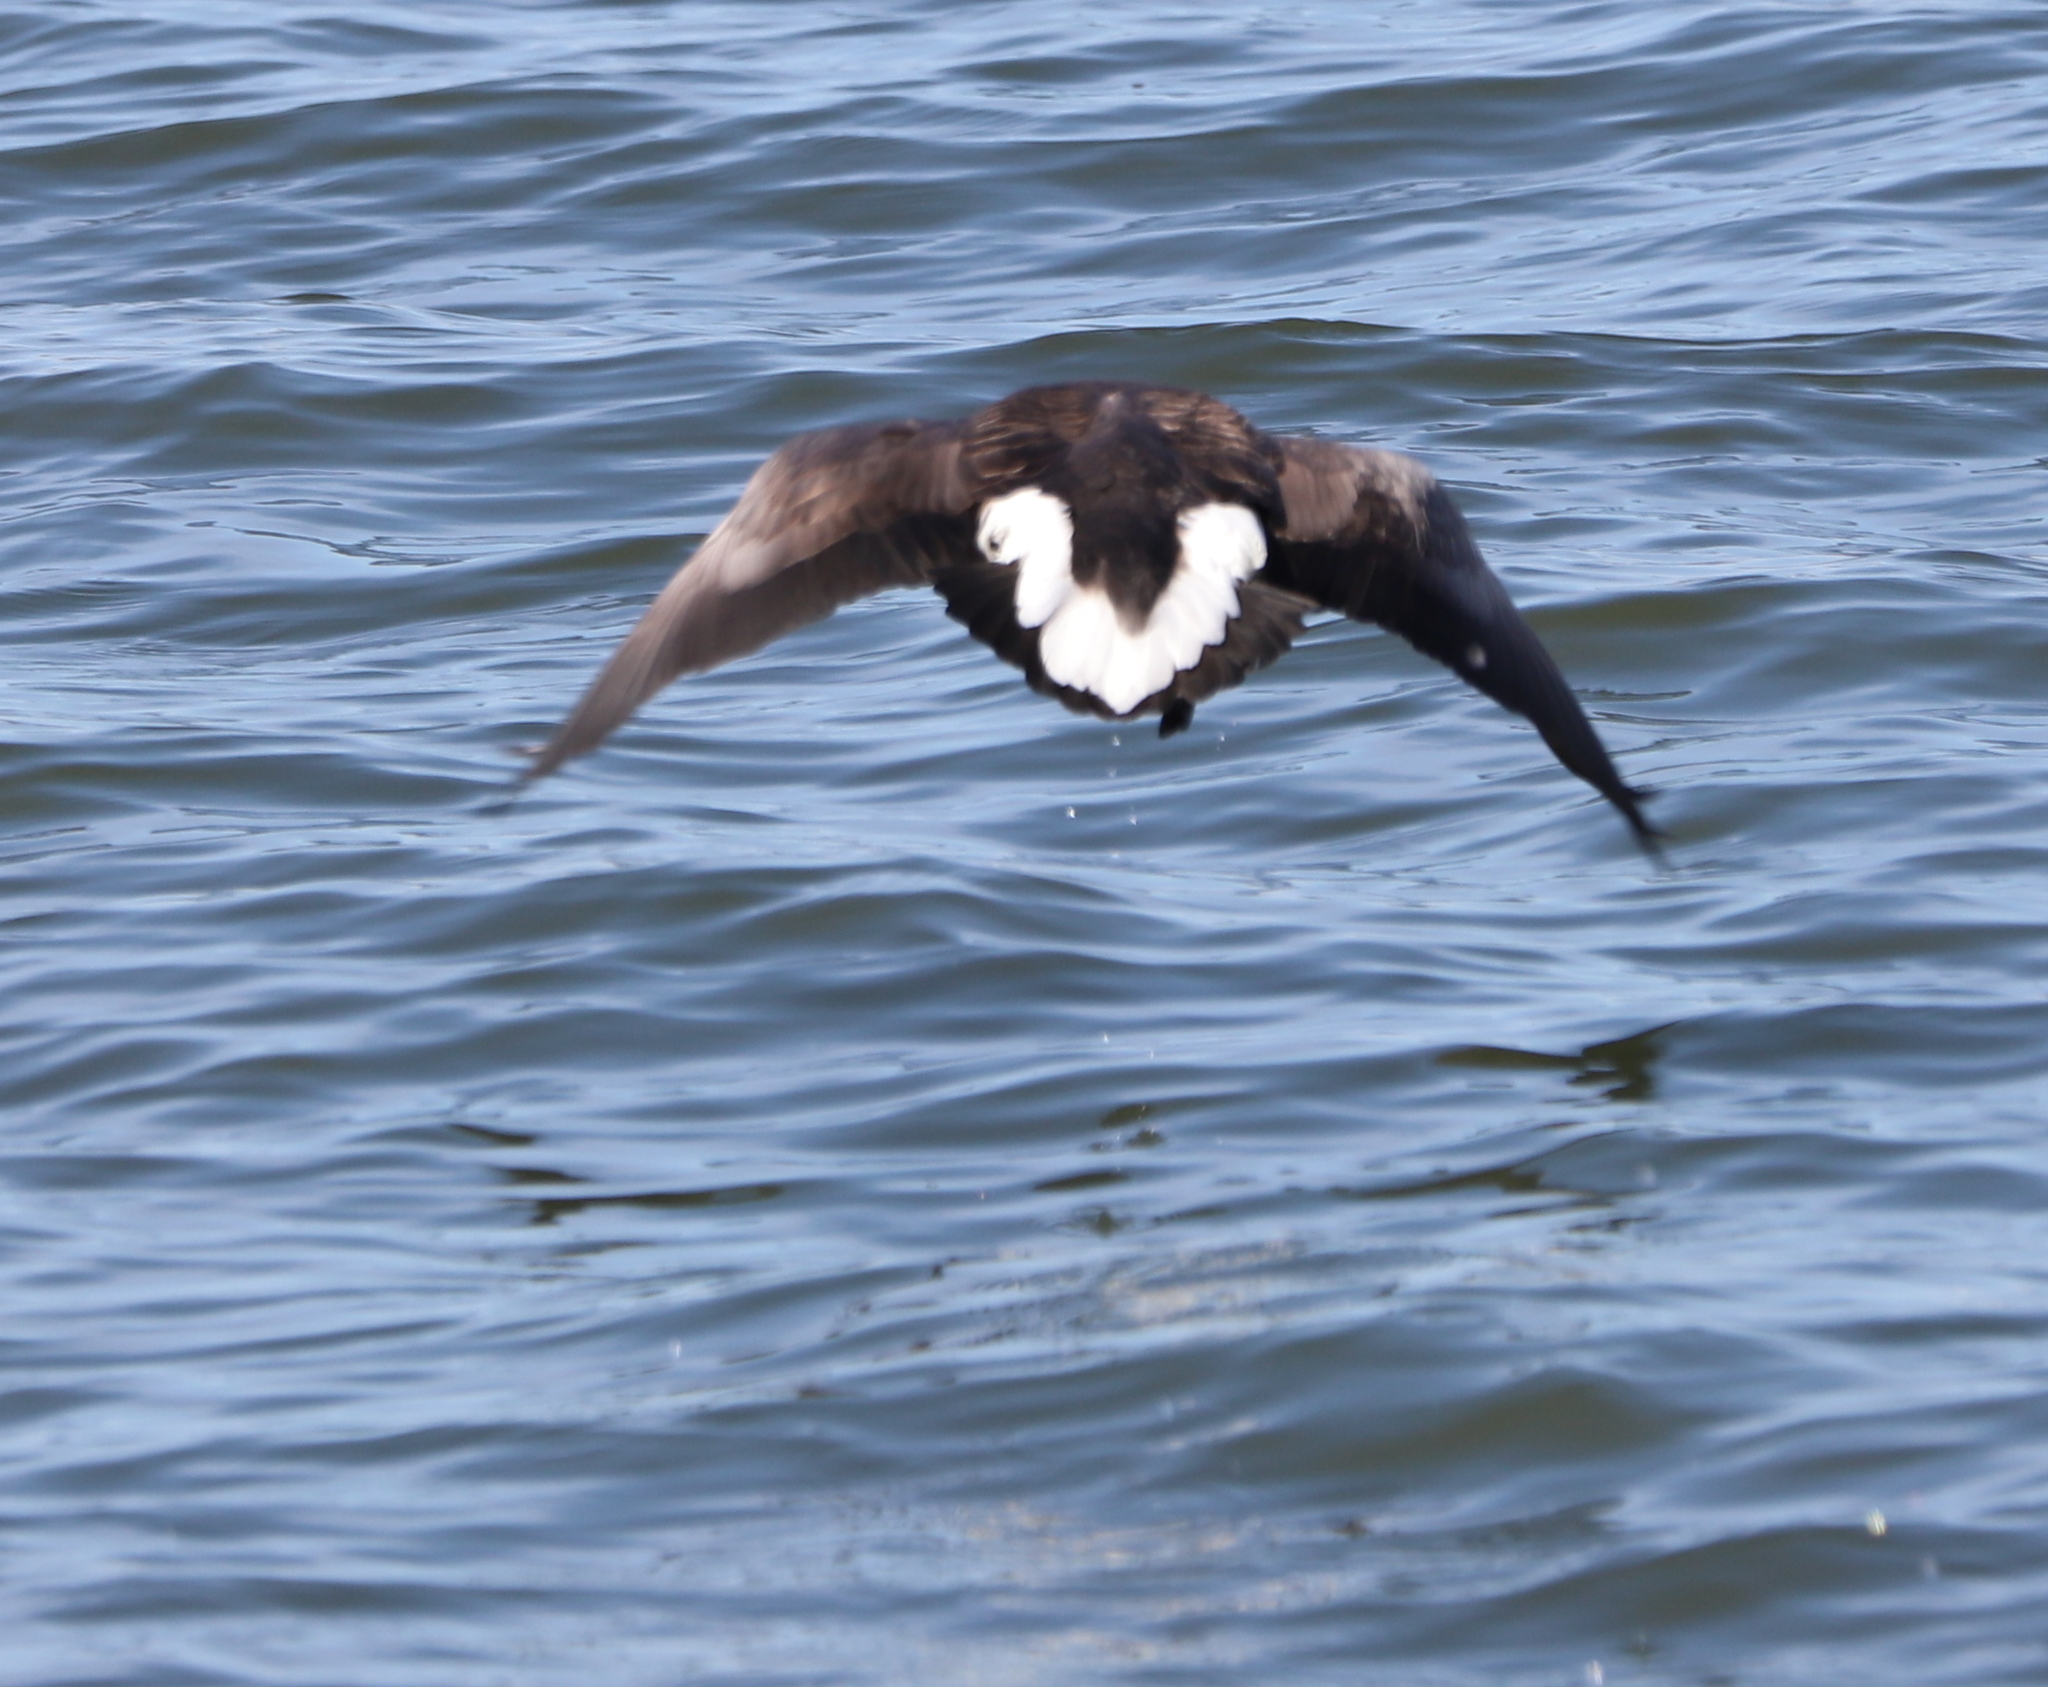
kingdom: Animalia
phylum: Chordata
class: Aves
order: Anseriformes
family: Anatidae
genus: Branta
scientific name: Branta bernicla
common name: Brant goose
